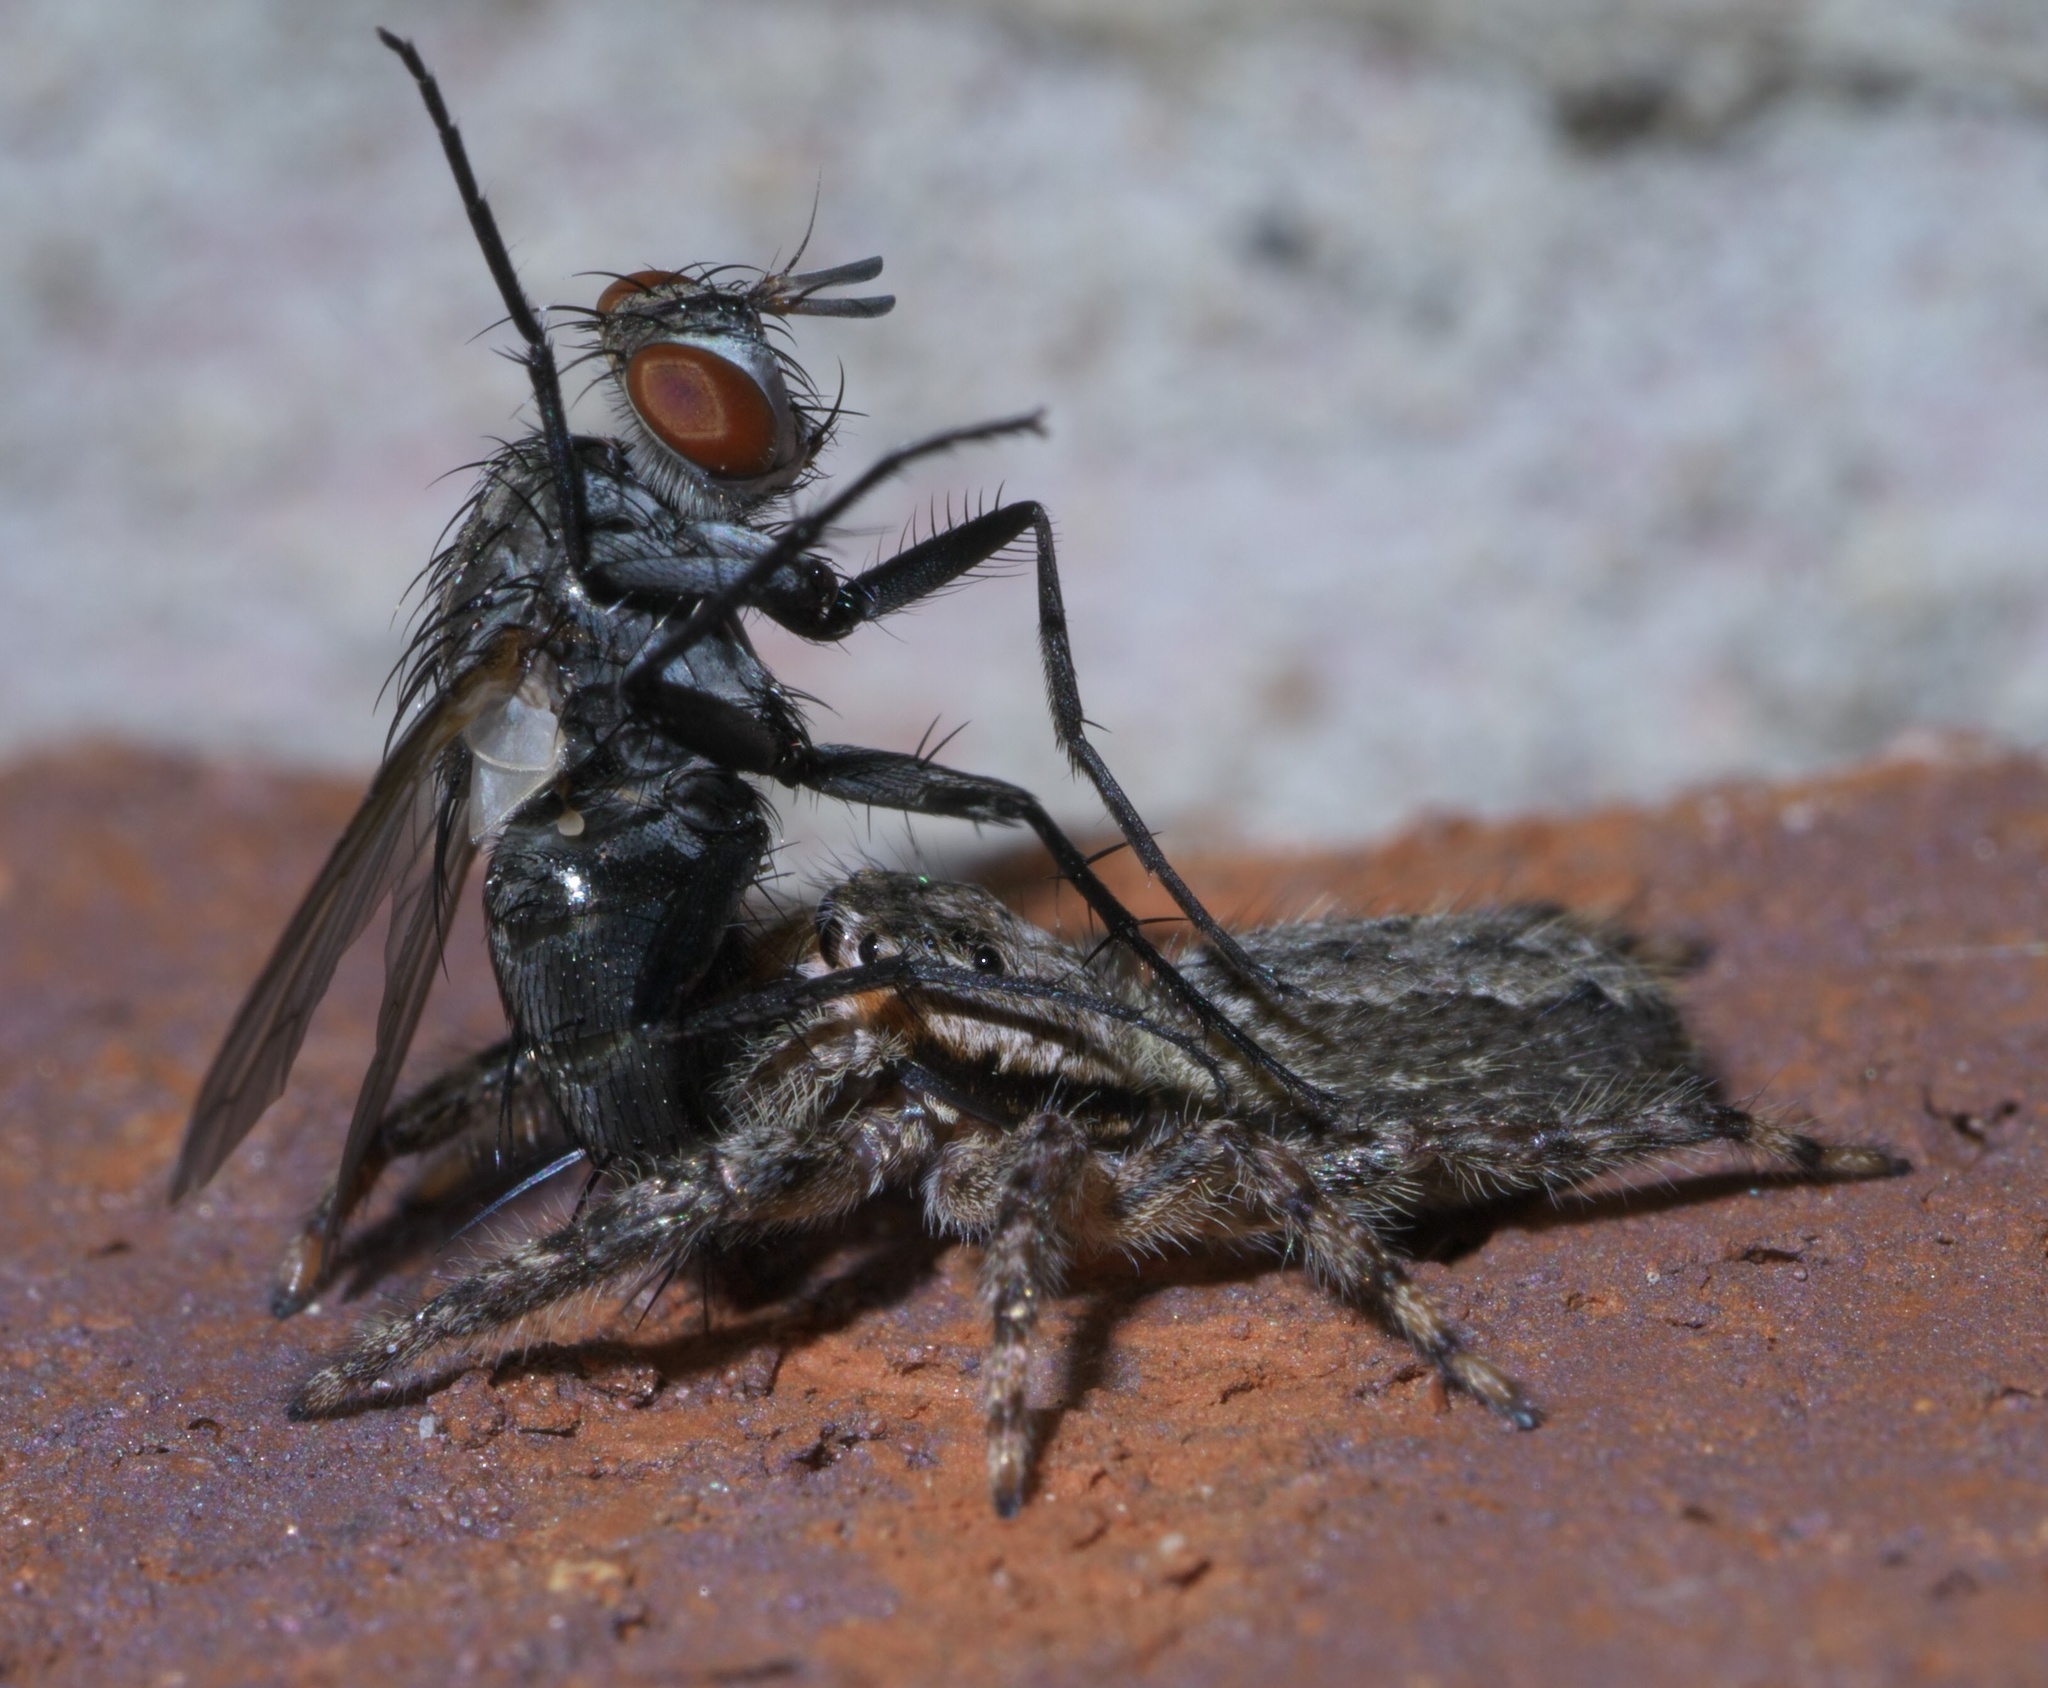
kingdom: Animalia
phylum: Arthropoda
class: Arachnida
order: Araneae
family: Salticidae
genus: Platycryptus
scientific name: Platycryptus undatus
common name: Tan jumping spider
